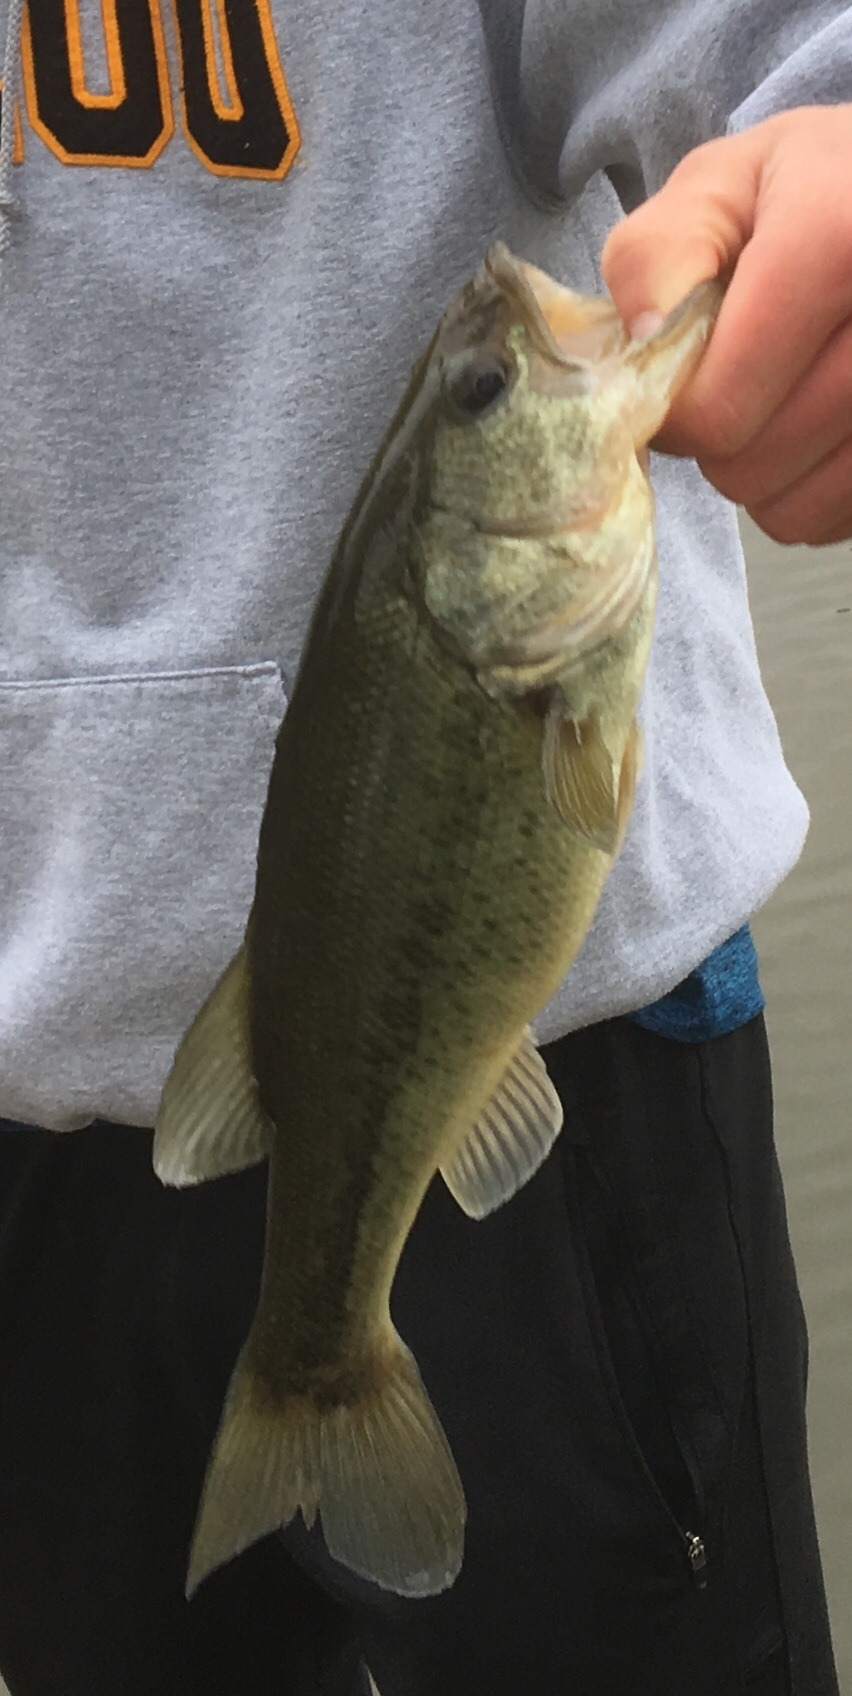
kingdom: Animalia
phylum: Chordata
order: Perciformes
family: Centrarchidae
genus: Micropterus
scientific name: Micropterus
